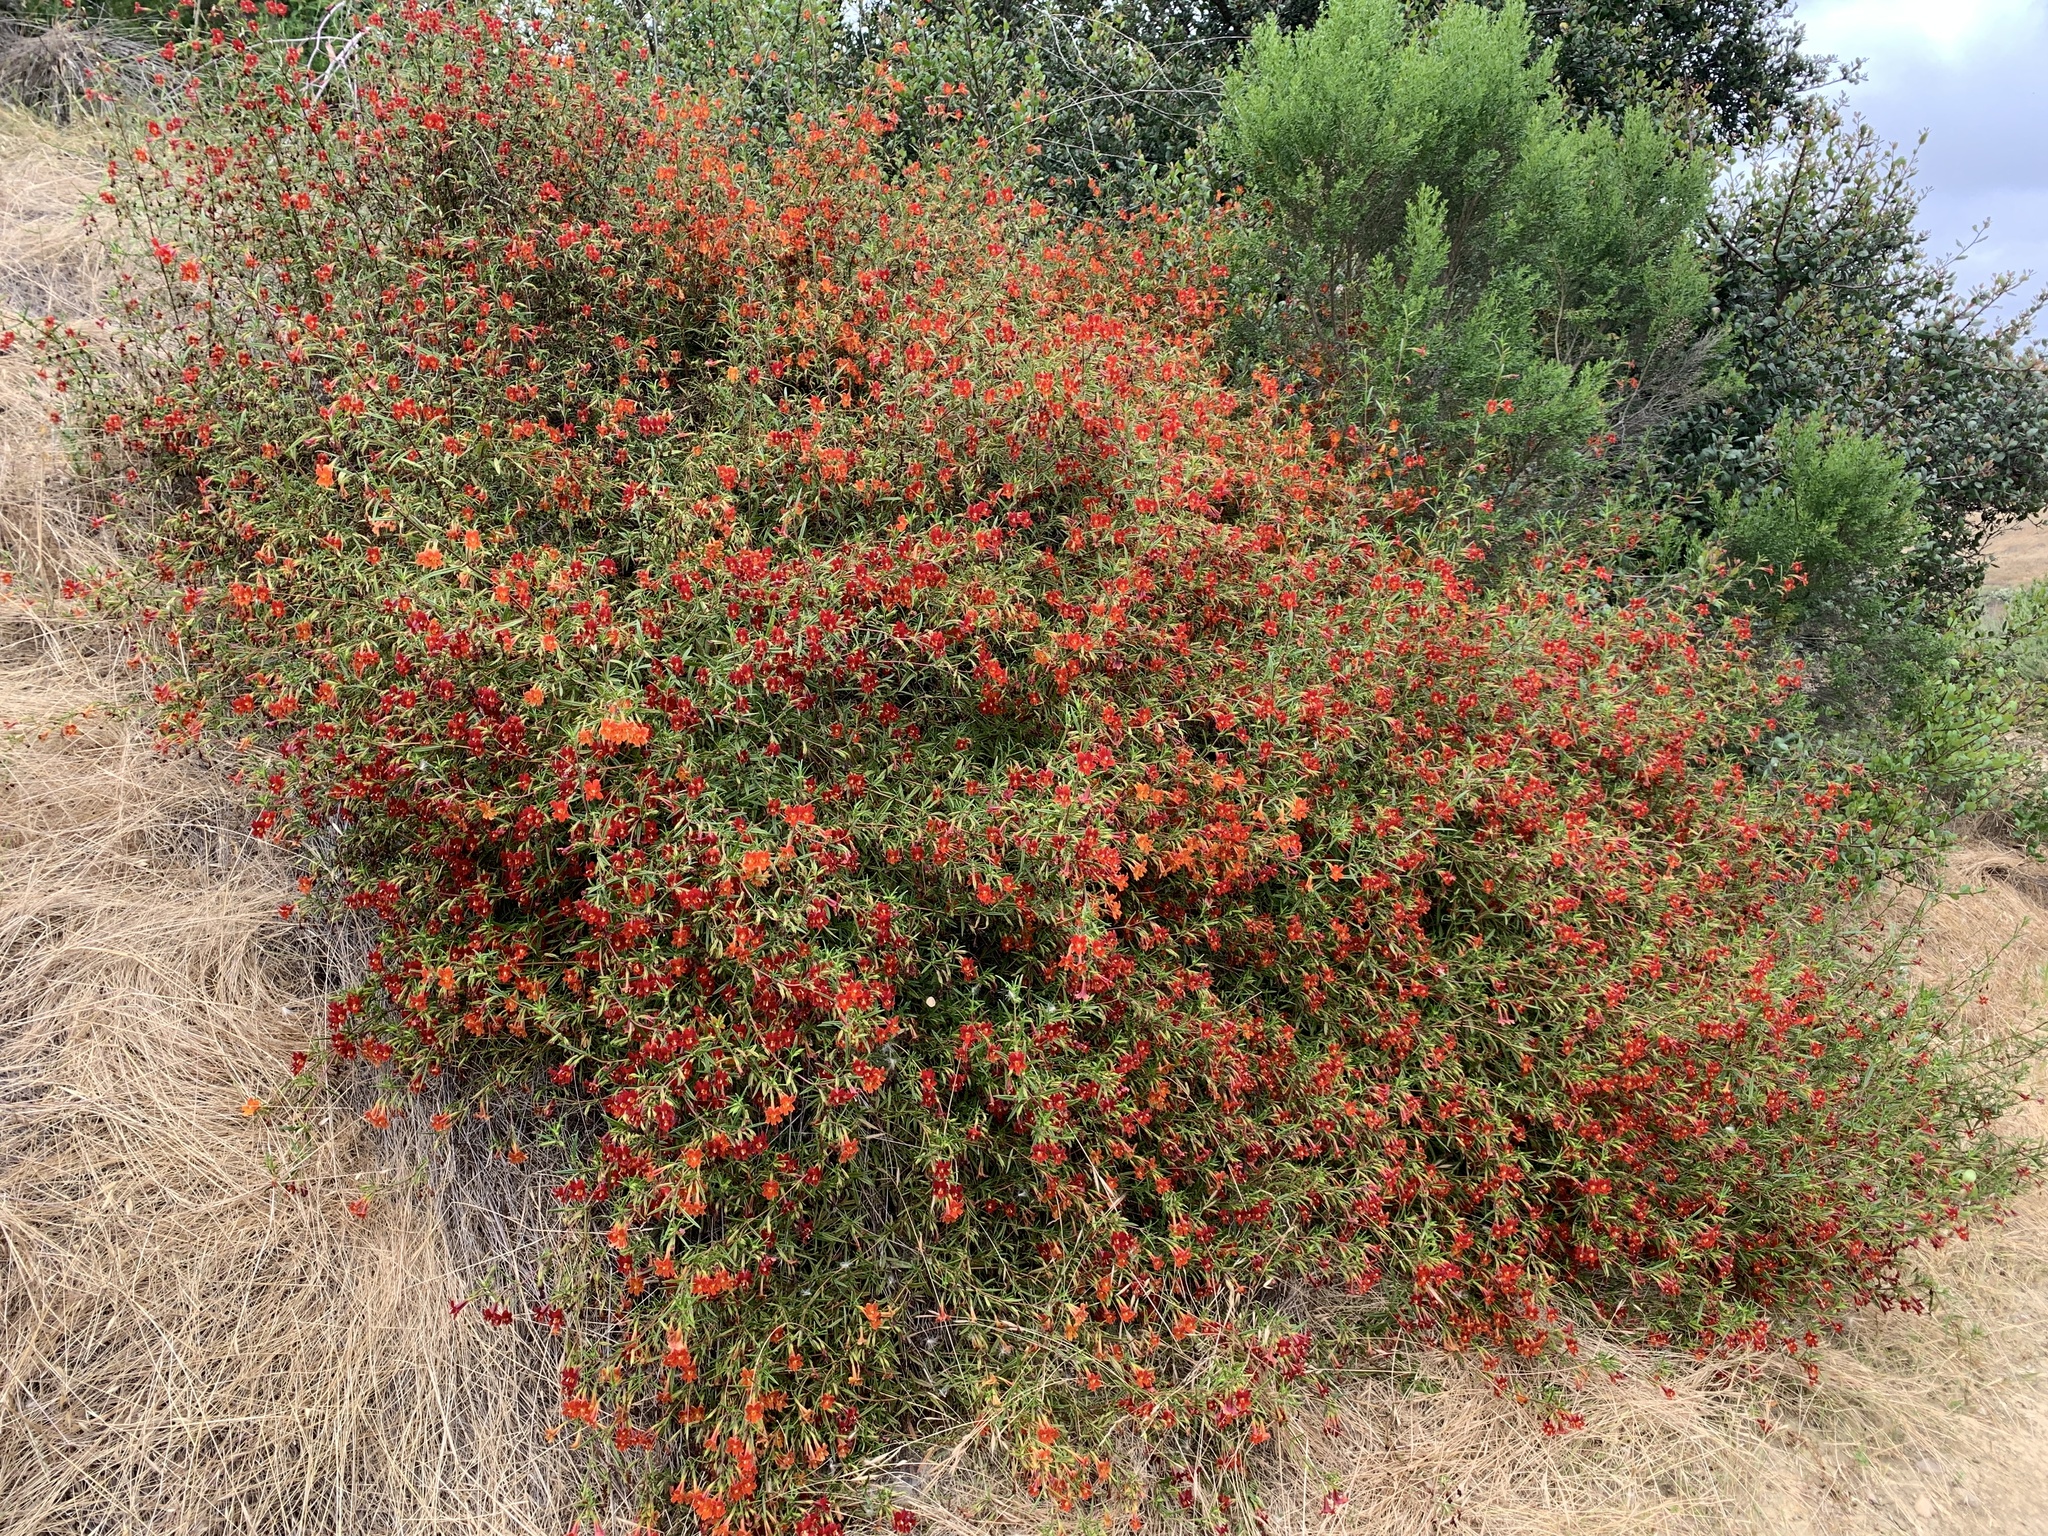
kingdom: Plantae
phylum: Tracheophyta
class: Magnoliopsida
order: Lamiales
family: Phrymaceae
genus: Diplacus
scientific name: Diplacus puniceus
